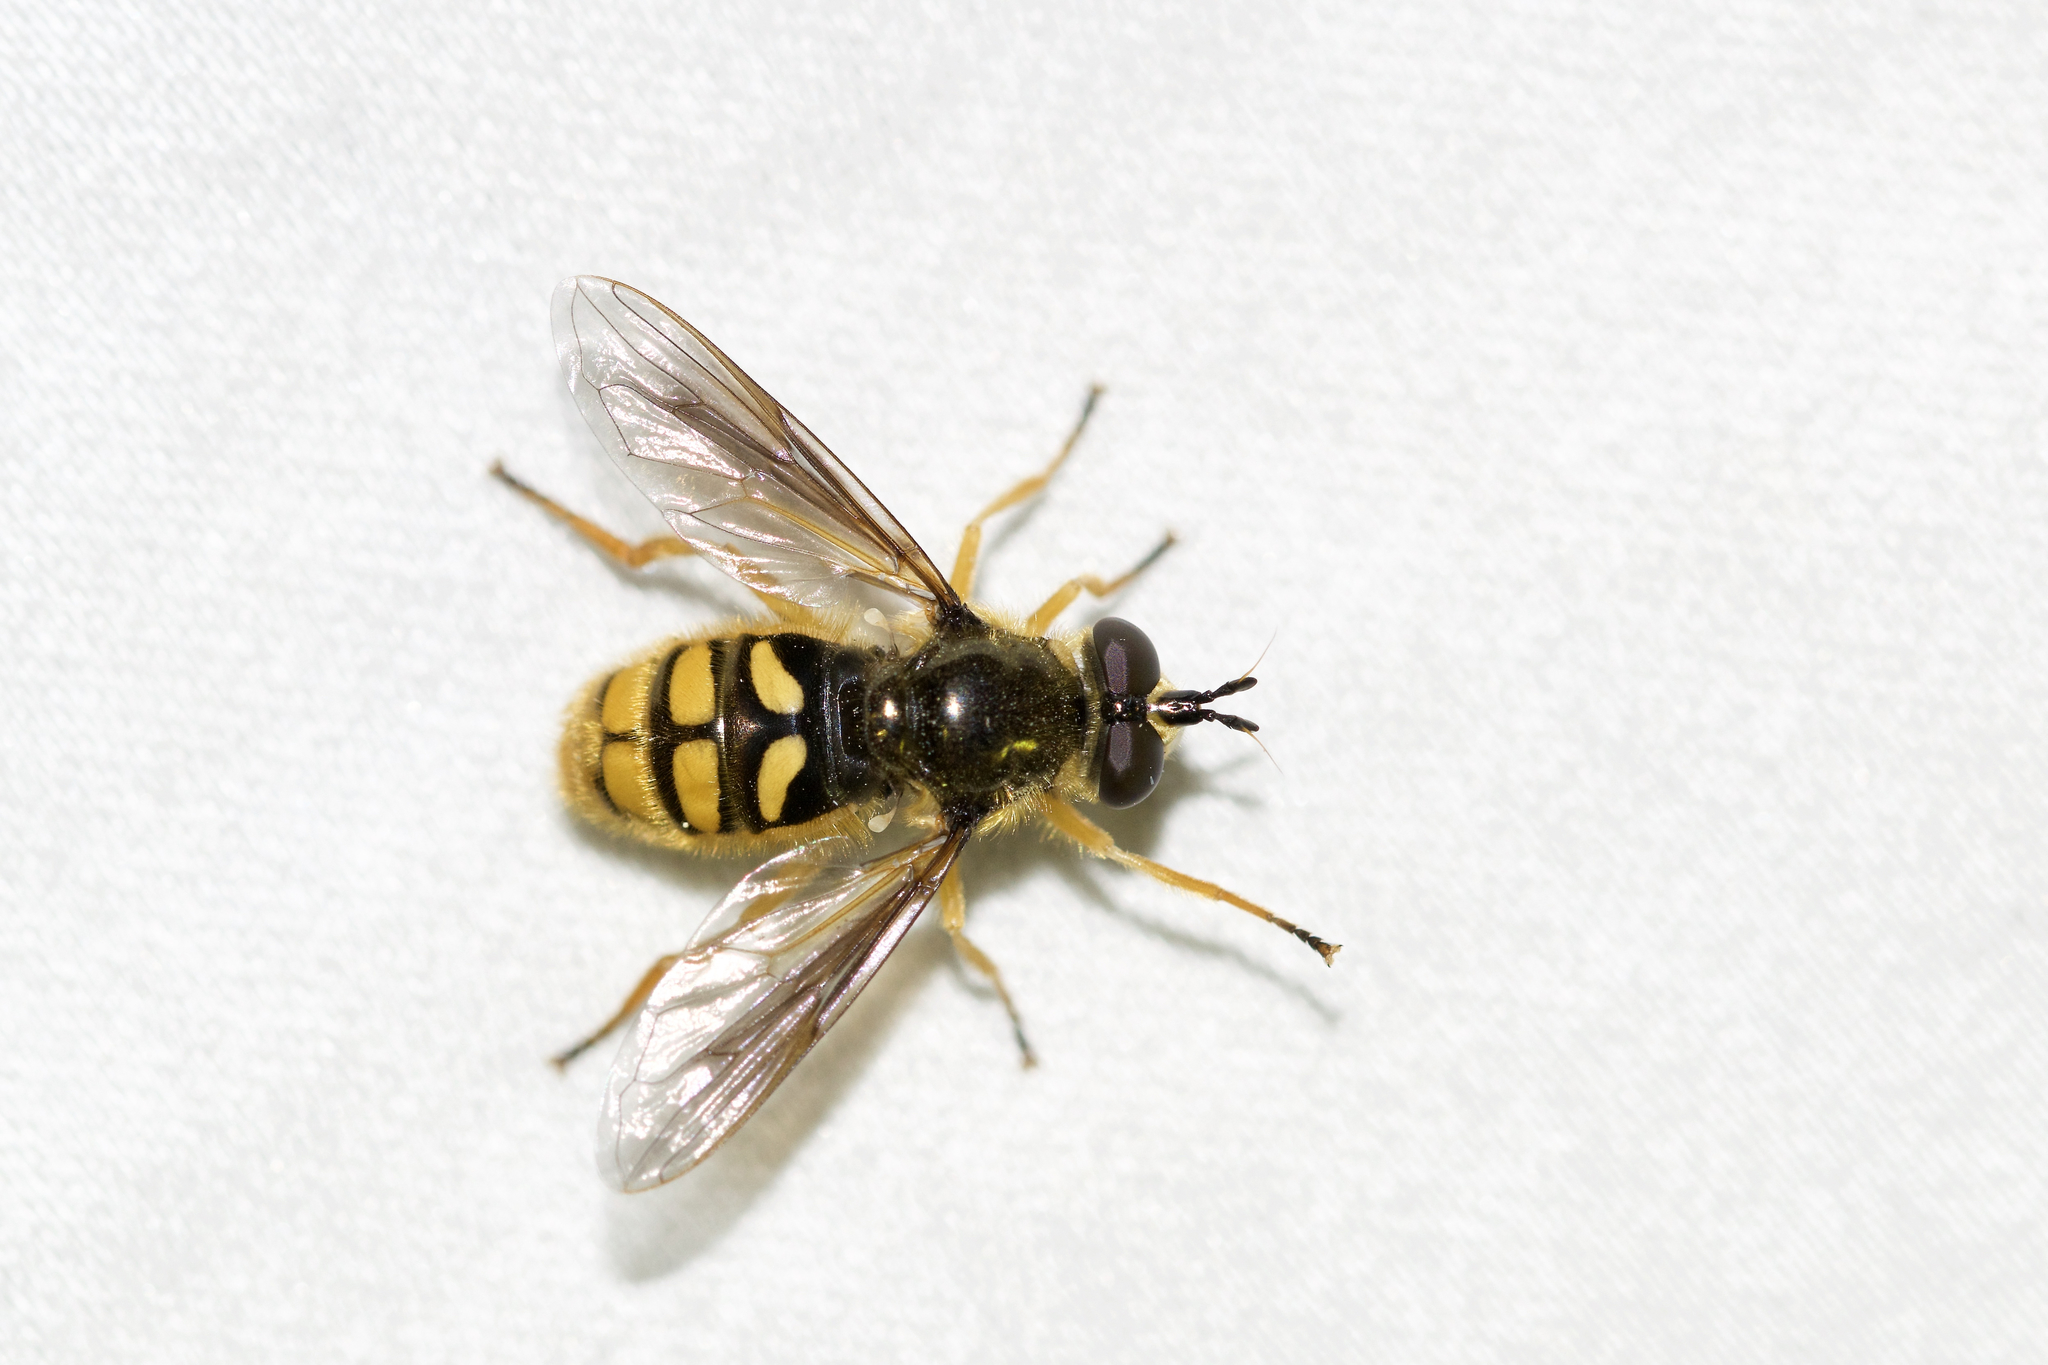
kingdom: Animalia
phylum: Arthropoda
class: Insecta
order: Diptera
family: Syrphidae
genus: Somula
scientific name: Somula decora
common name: Spotted wood fly
